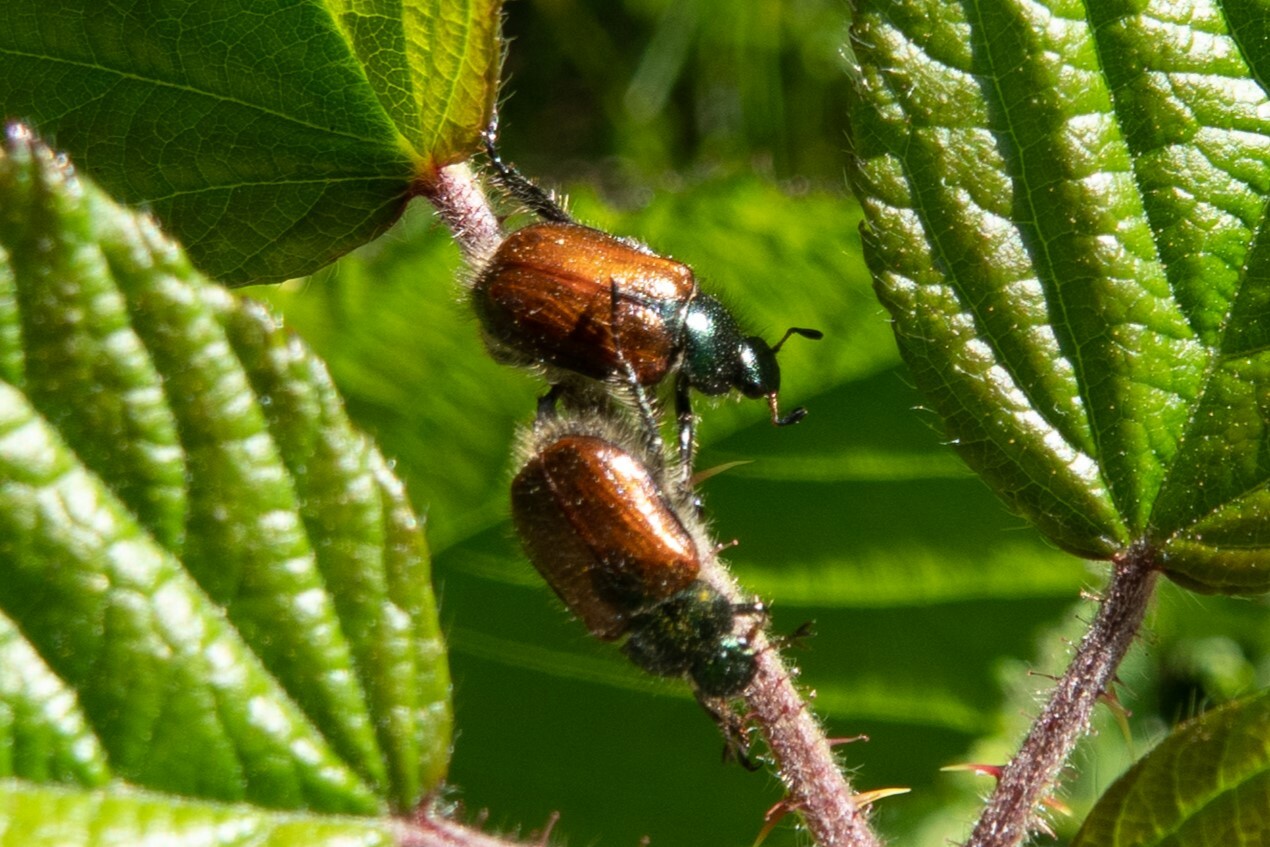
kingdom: Animalia
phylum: Arthropoda
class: Insecta
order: Coleoptera
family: Scarabaeidae
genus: Phyllopertha
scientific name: Phyllopertha horticola
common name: Garden chafer
